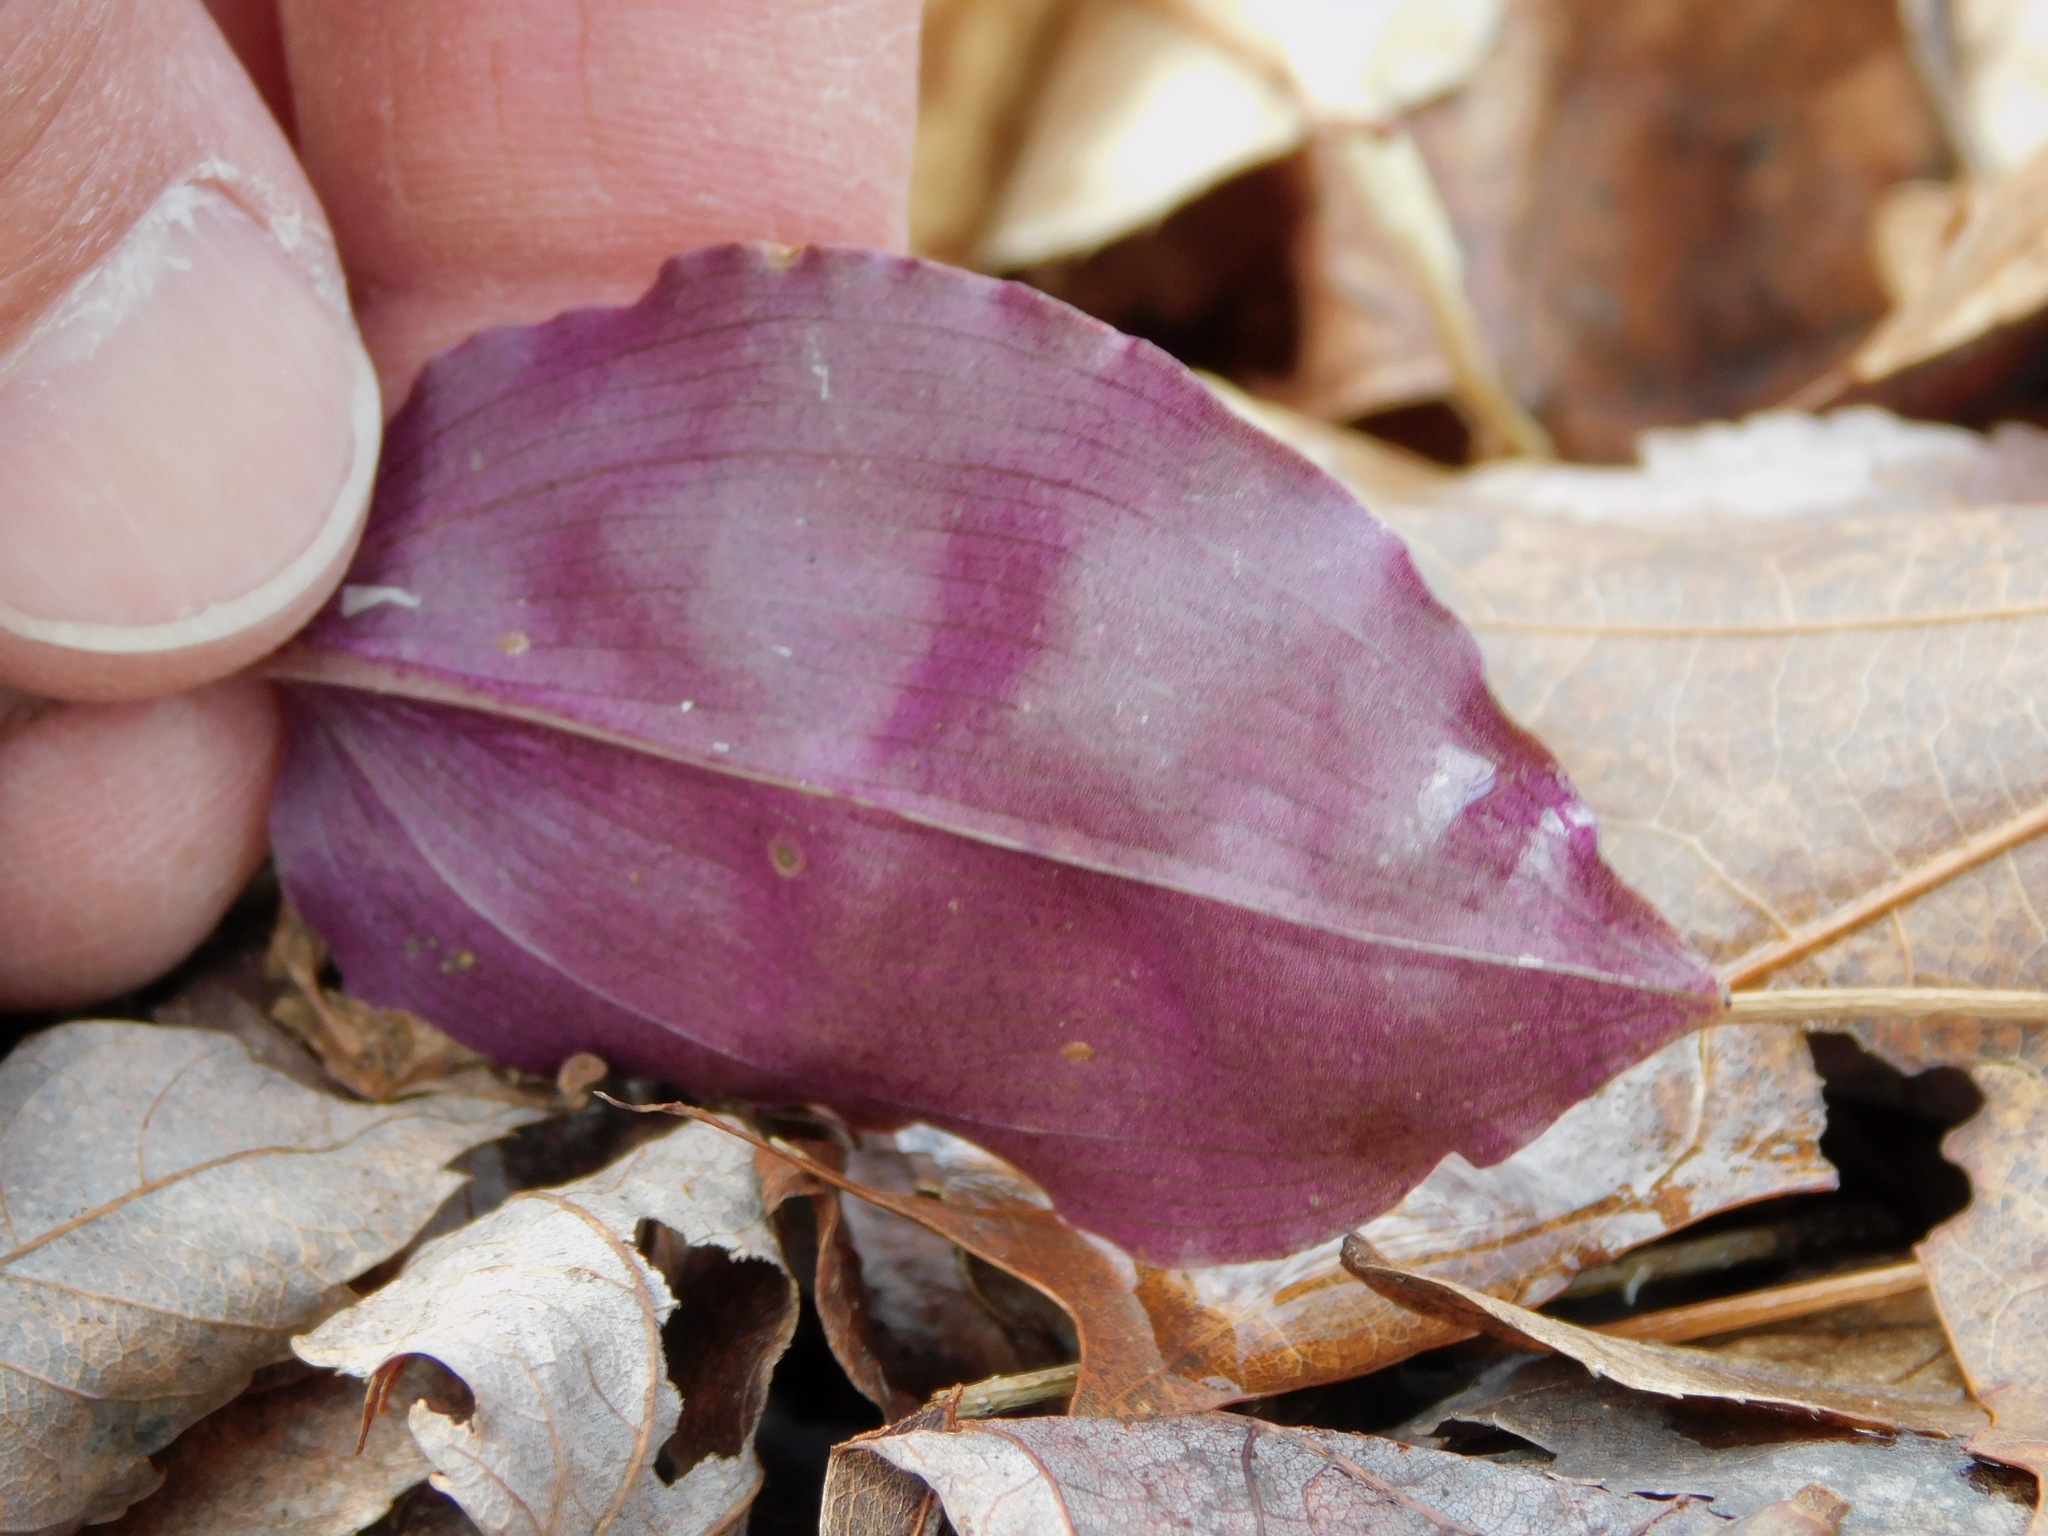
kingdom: Plantae
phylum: Tracheophyta
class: Liliopsida
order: Asparagales
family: Orchidaceae
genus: Tipularia
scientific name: Tipularia discolor
